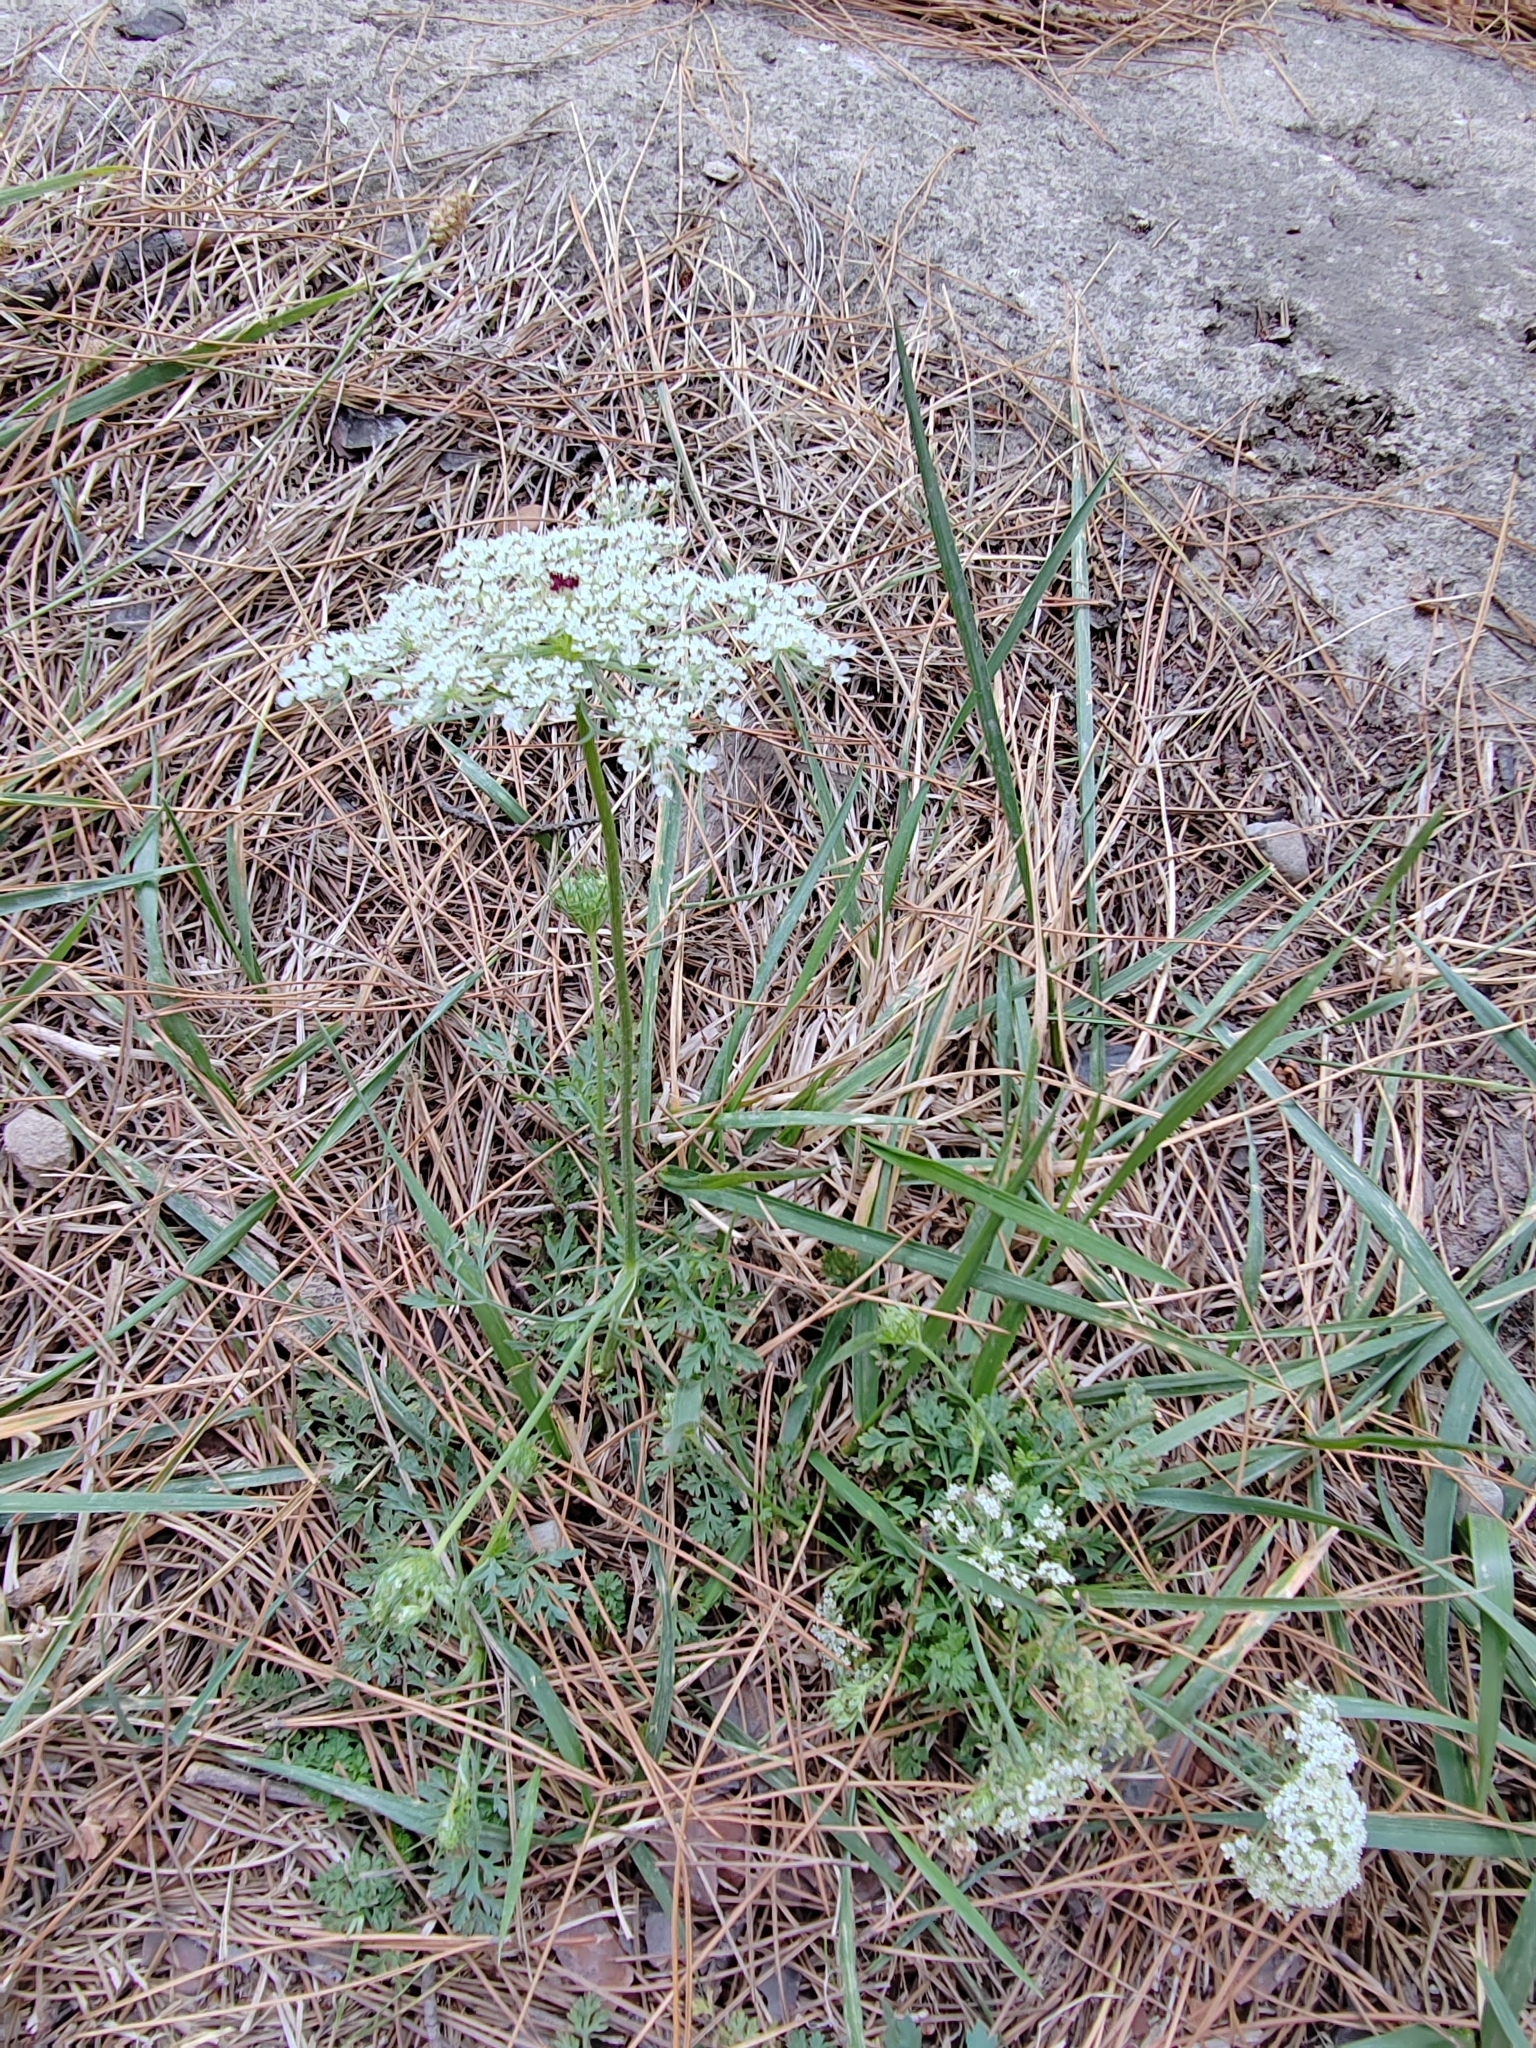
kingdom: Plantae
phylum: Tracheophyta
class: Magnoliopsida
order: Apiales
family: Apiaceae
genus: Daucus
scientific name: Daucus carota
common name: Wild carrot
